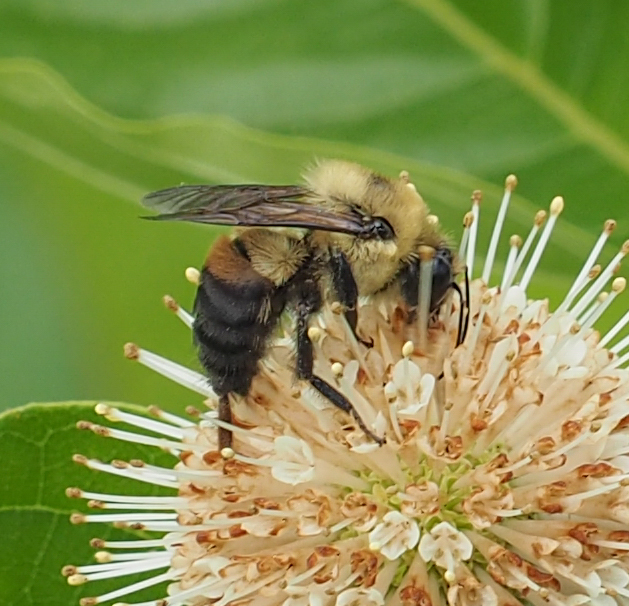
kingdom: Animalia
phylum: Arthropoda
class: Insecta
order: Hymenoptera
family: Apidae
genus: Bombus
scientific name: Bombus griseocollis
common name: Brown-belted bumble bee
